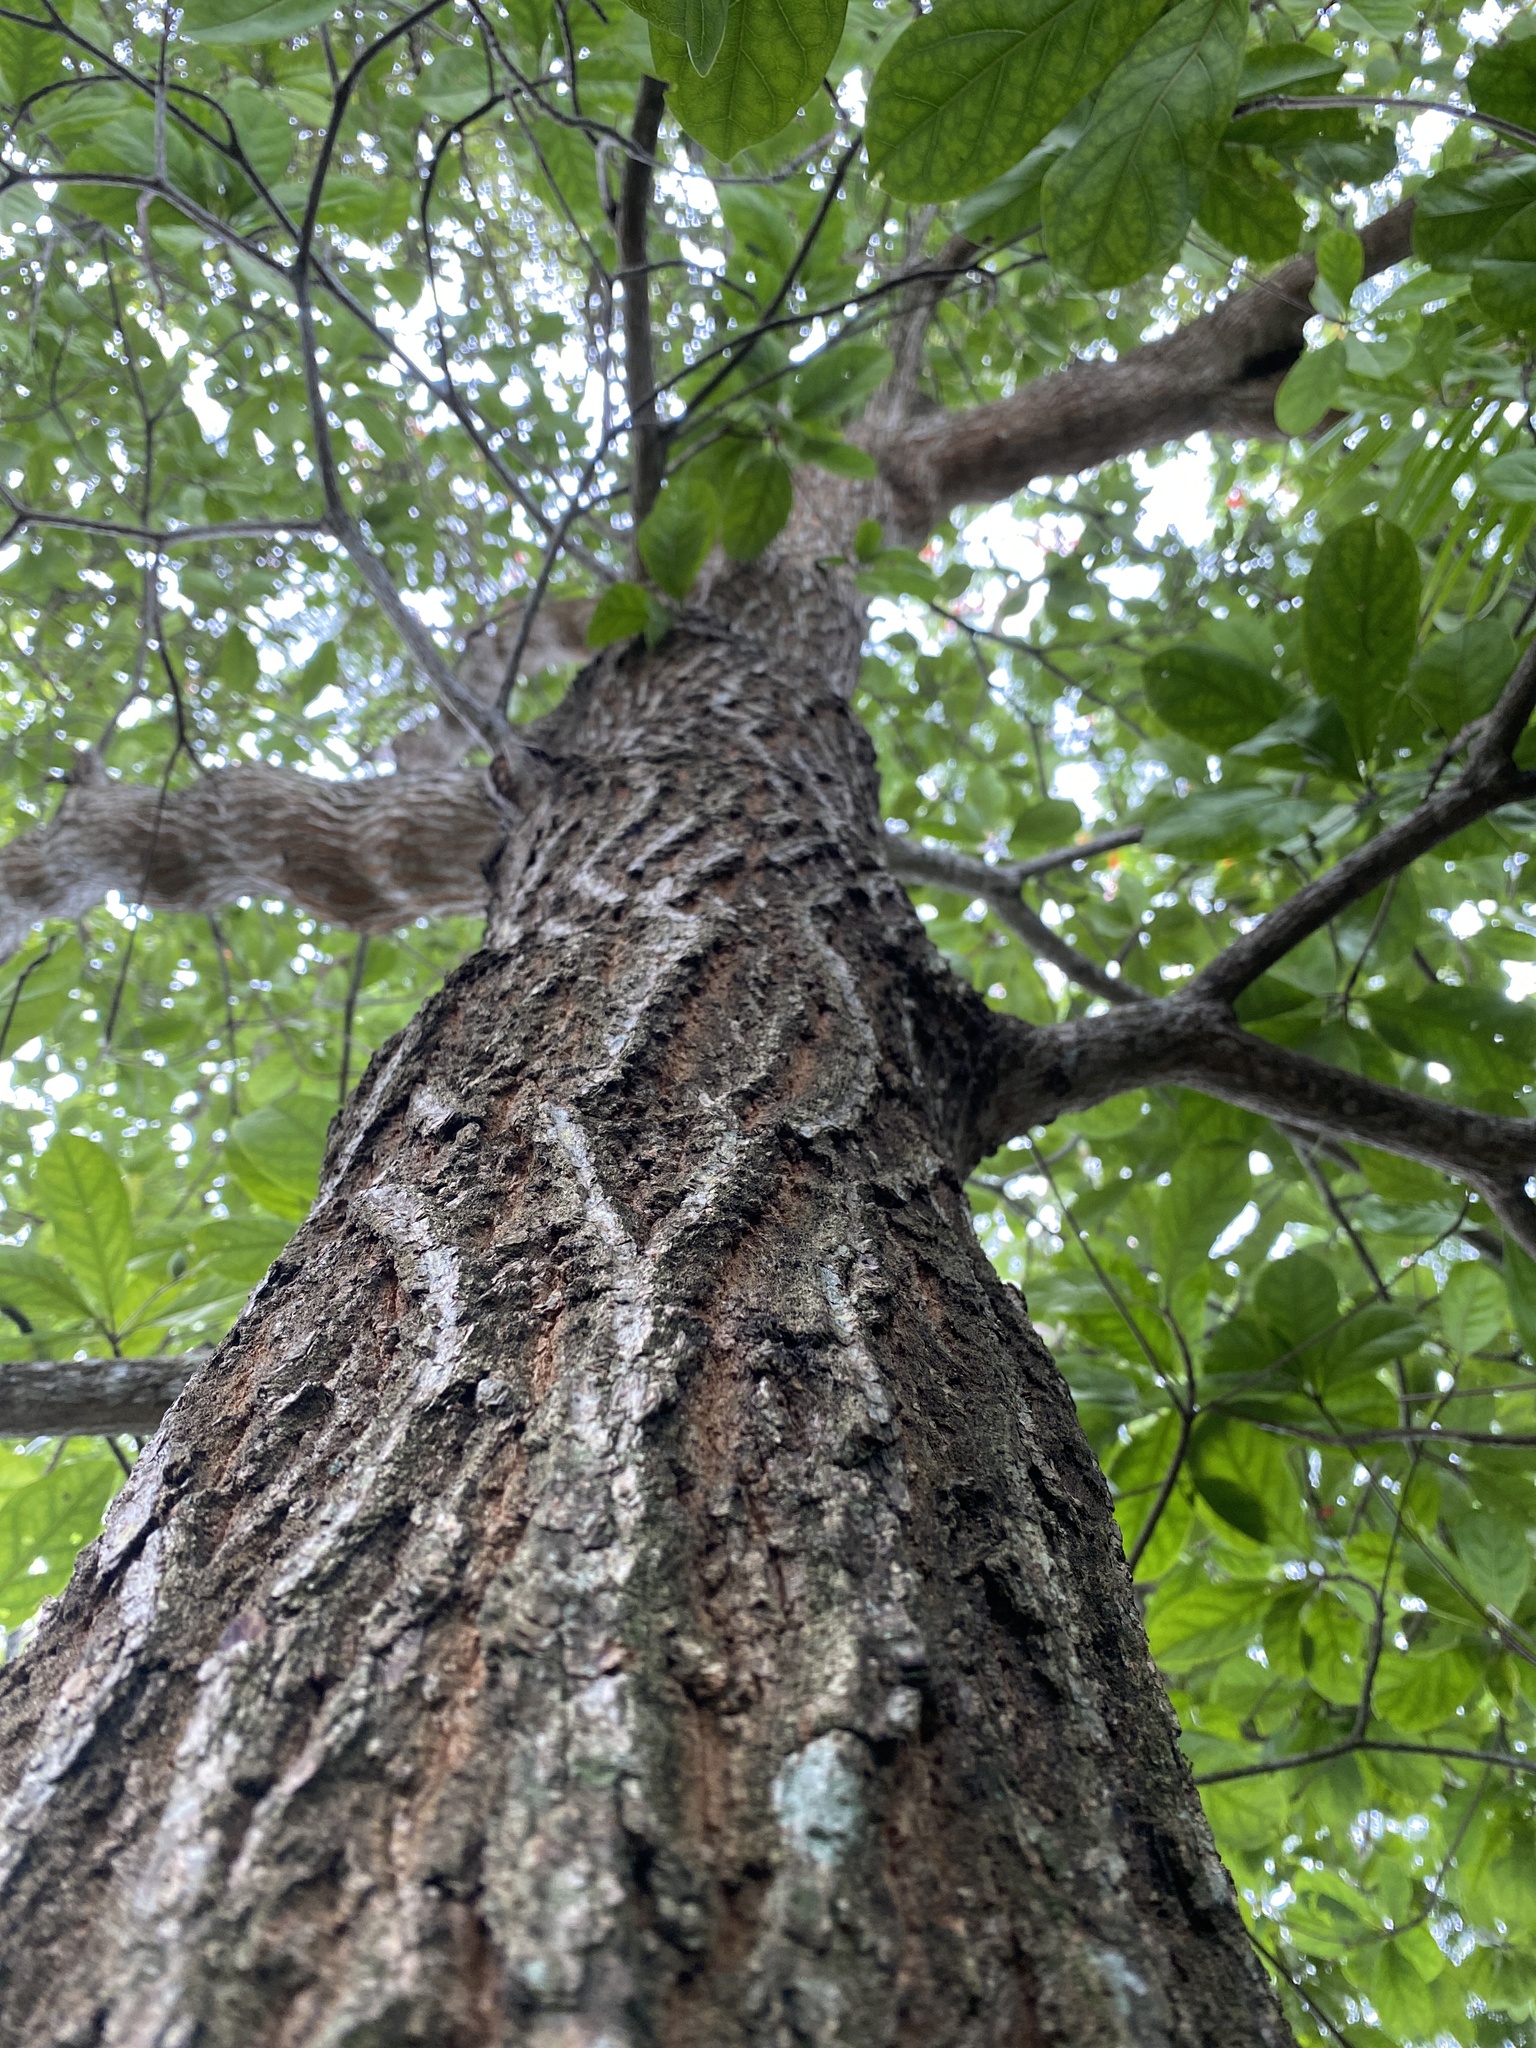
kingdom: Plantae
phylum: Tracheophyta
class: Magnoliopsida
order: Myrtales
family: Combretaceae
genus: Terminalia
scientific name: Terminalia muelleri
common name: Australian almond
